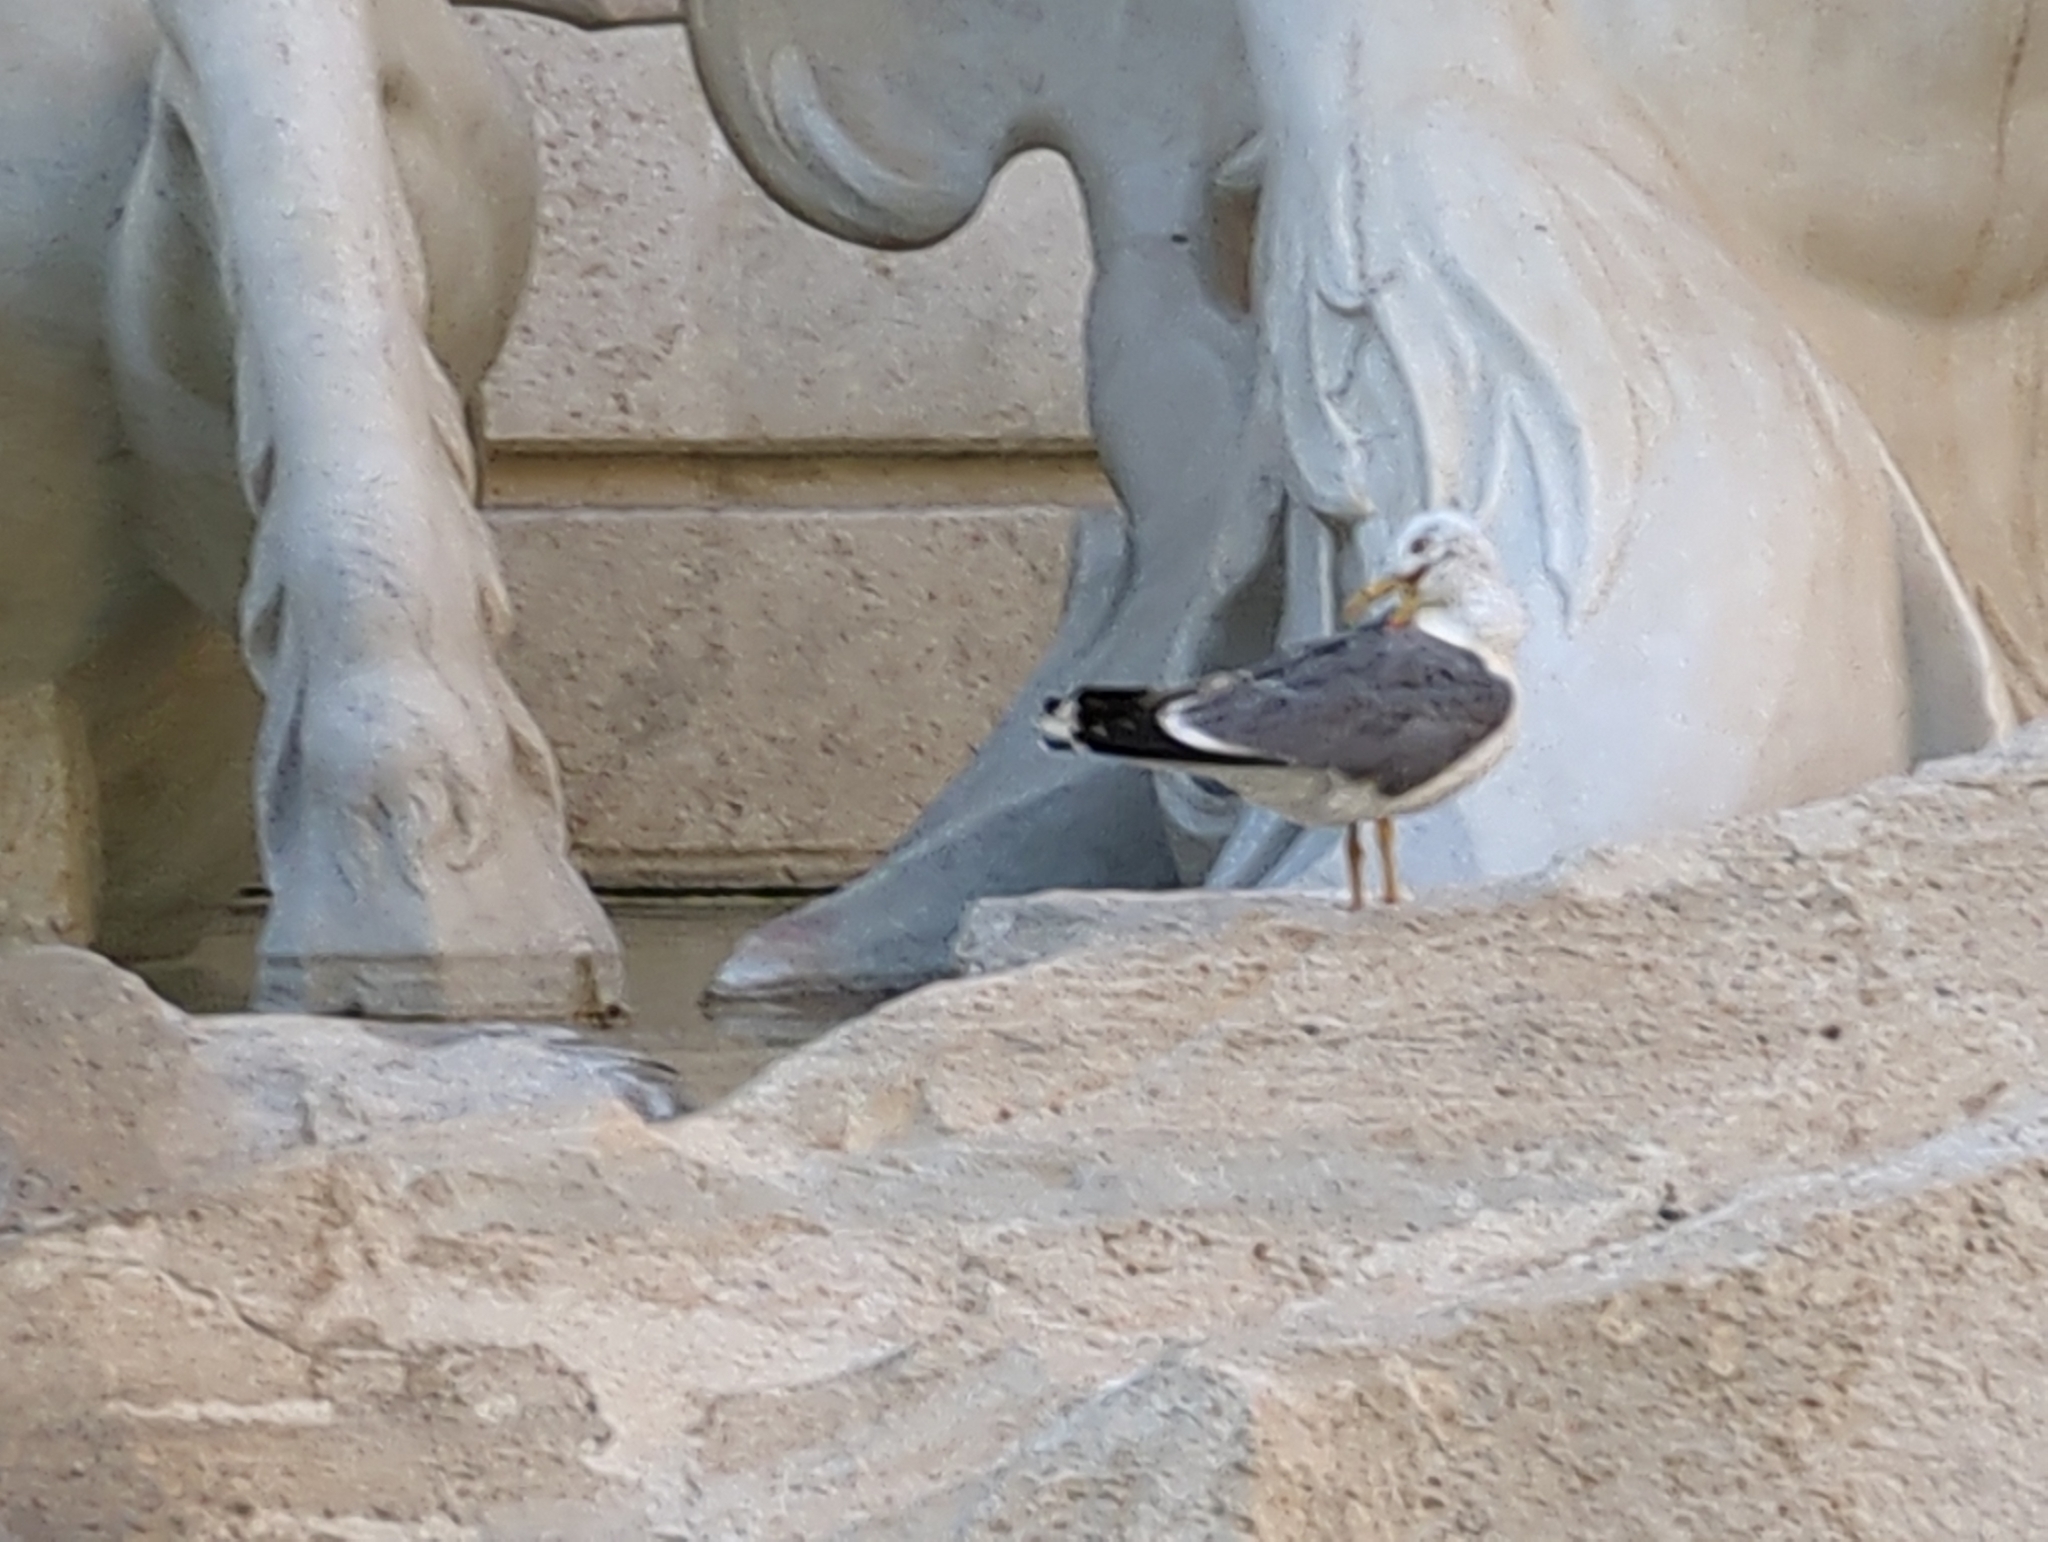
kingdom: Animalia
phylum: Chordata
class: Aves
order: Charadriiformes
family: Laridae
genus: Larus
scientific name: Larus michahellis
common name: Yellow-legged gull
